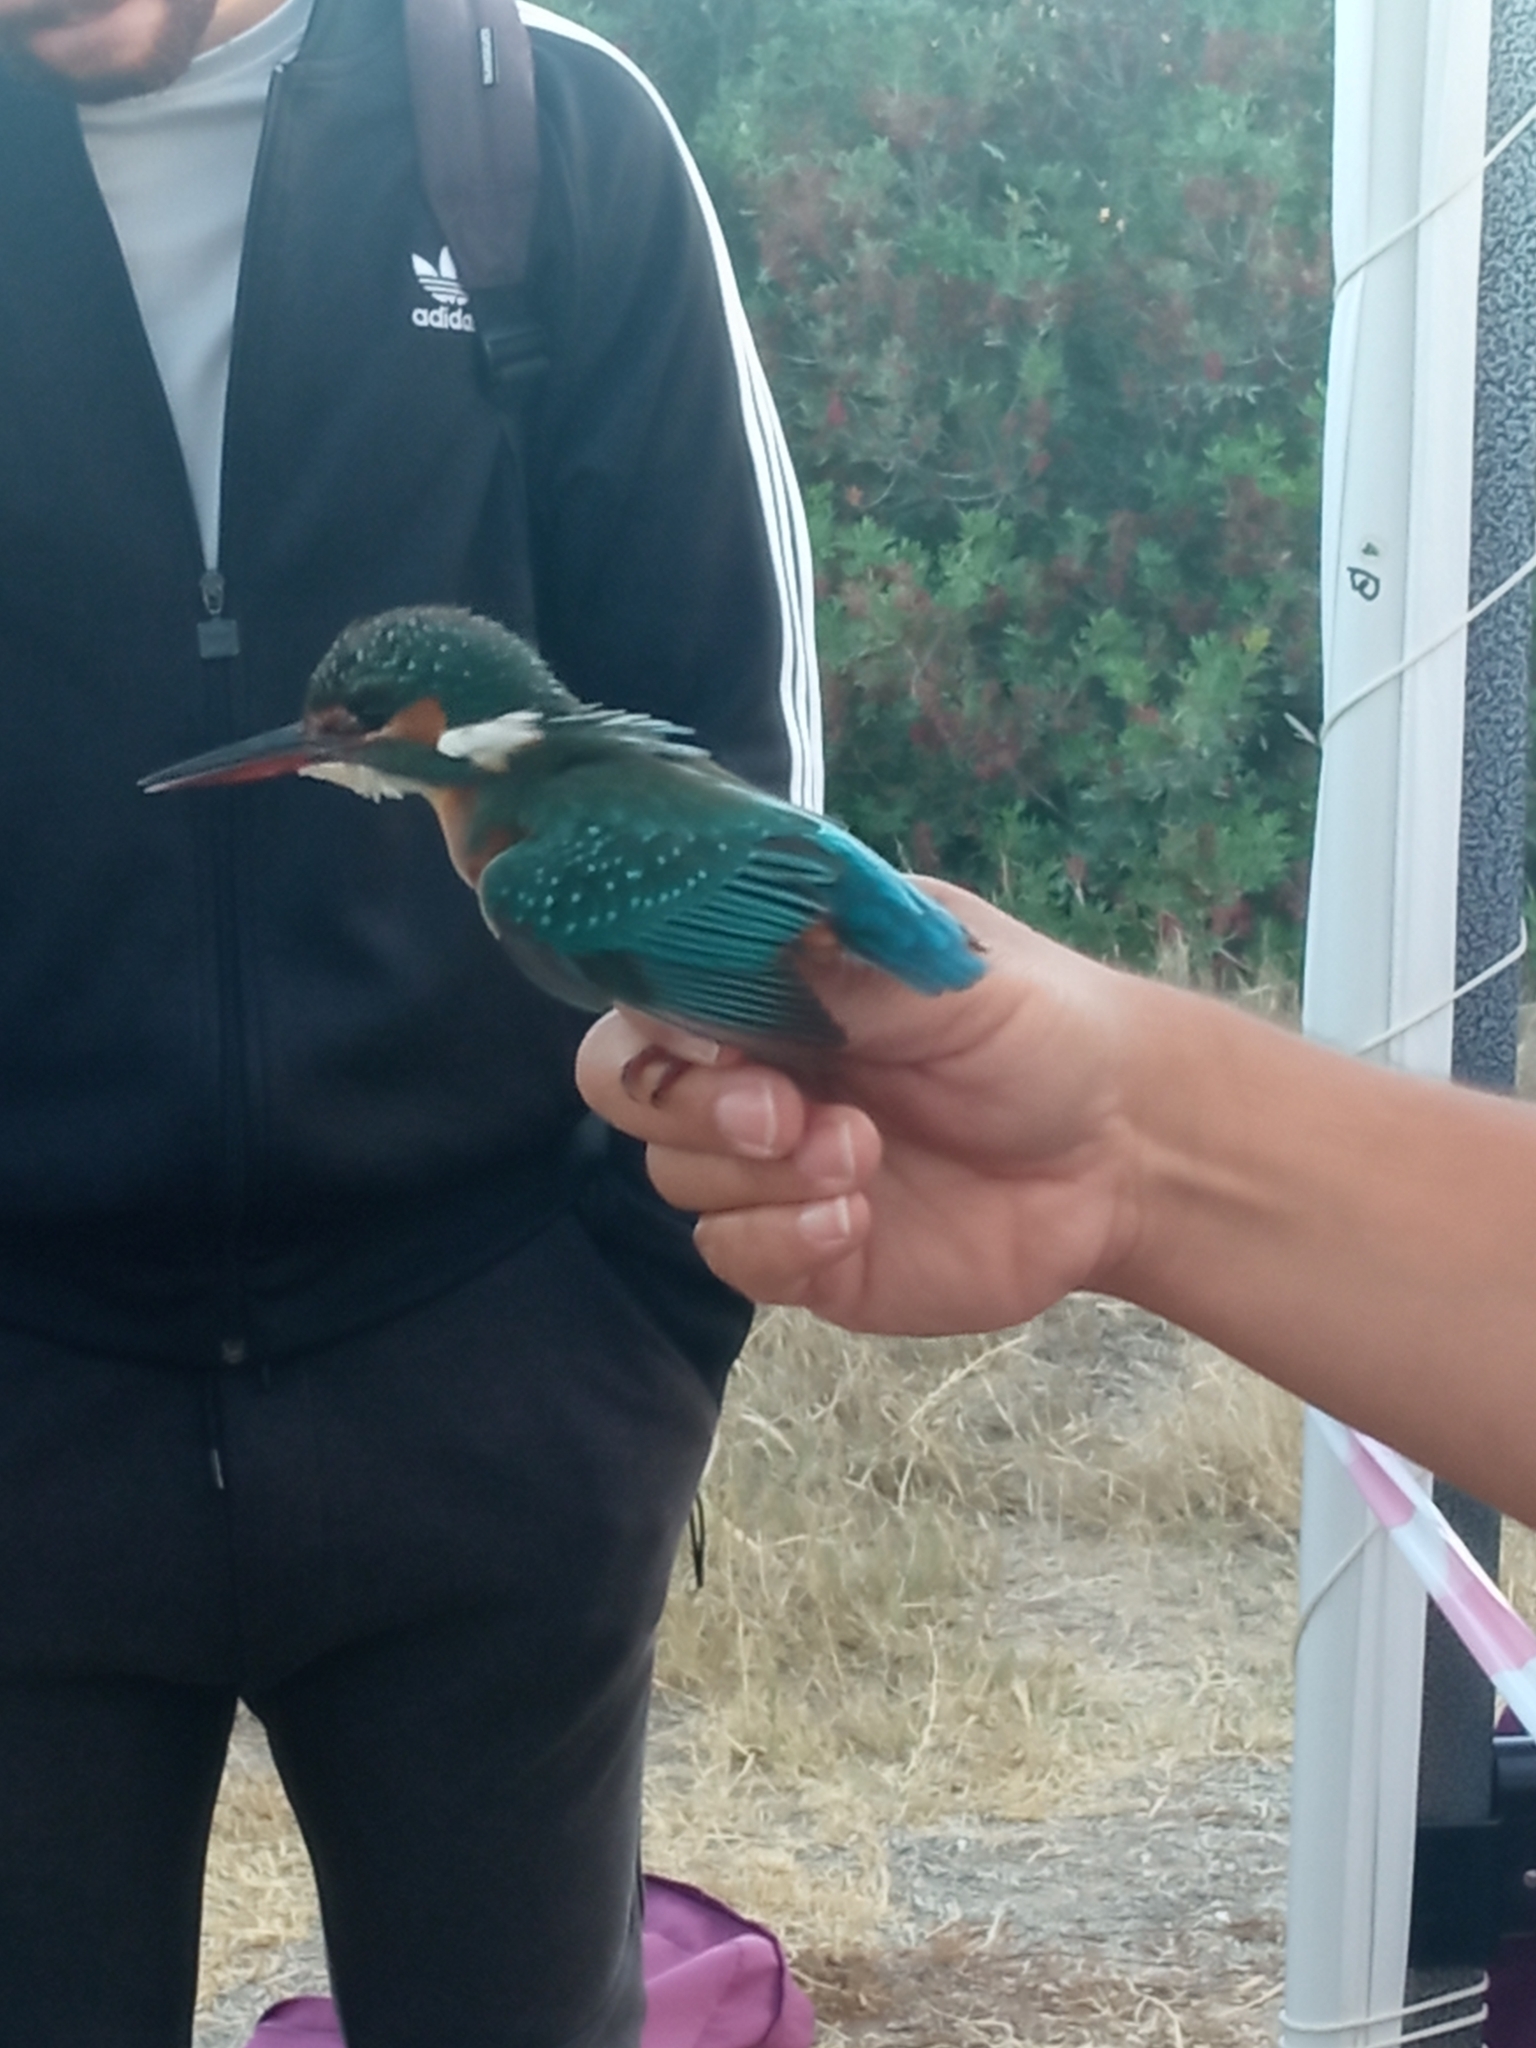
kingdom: Animalia
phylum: Chordata
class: Aves
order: Coraciiformes
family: Alcedinidae
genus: Alcedo
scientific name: Alcedo atthis
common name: Common kingfisher
